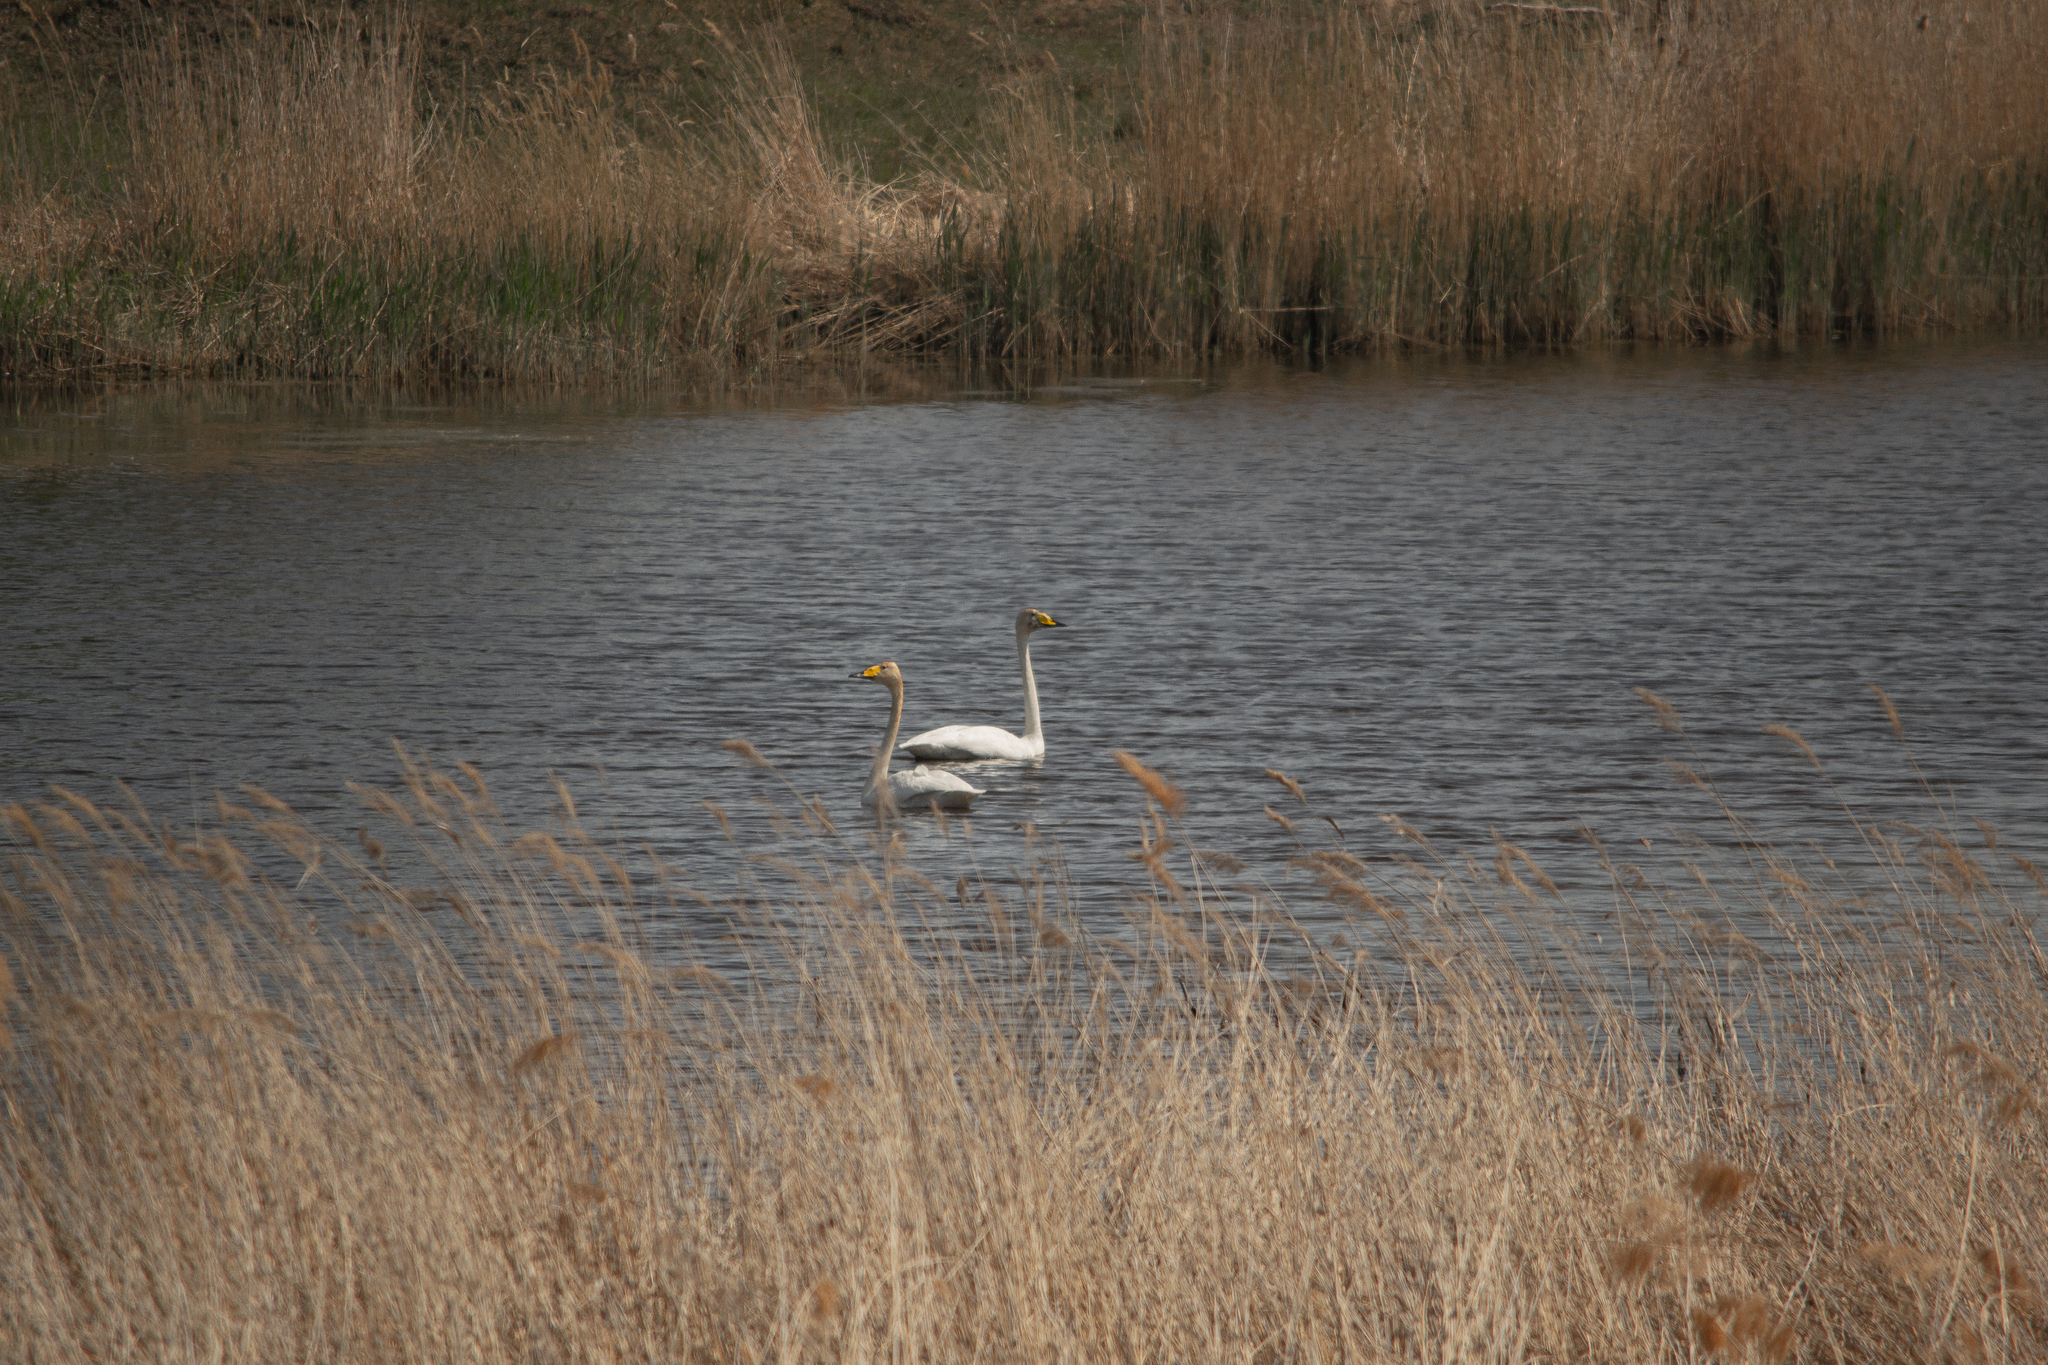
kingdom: Animalia
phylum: Chordata
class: Aves
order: Anseriformes
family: Anatidae
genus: Cygnus
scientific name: Cygnus cygnus
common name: Whooper swan
